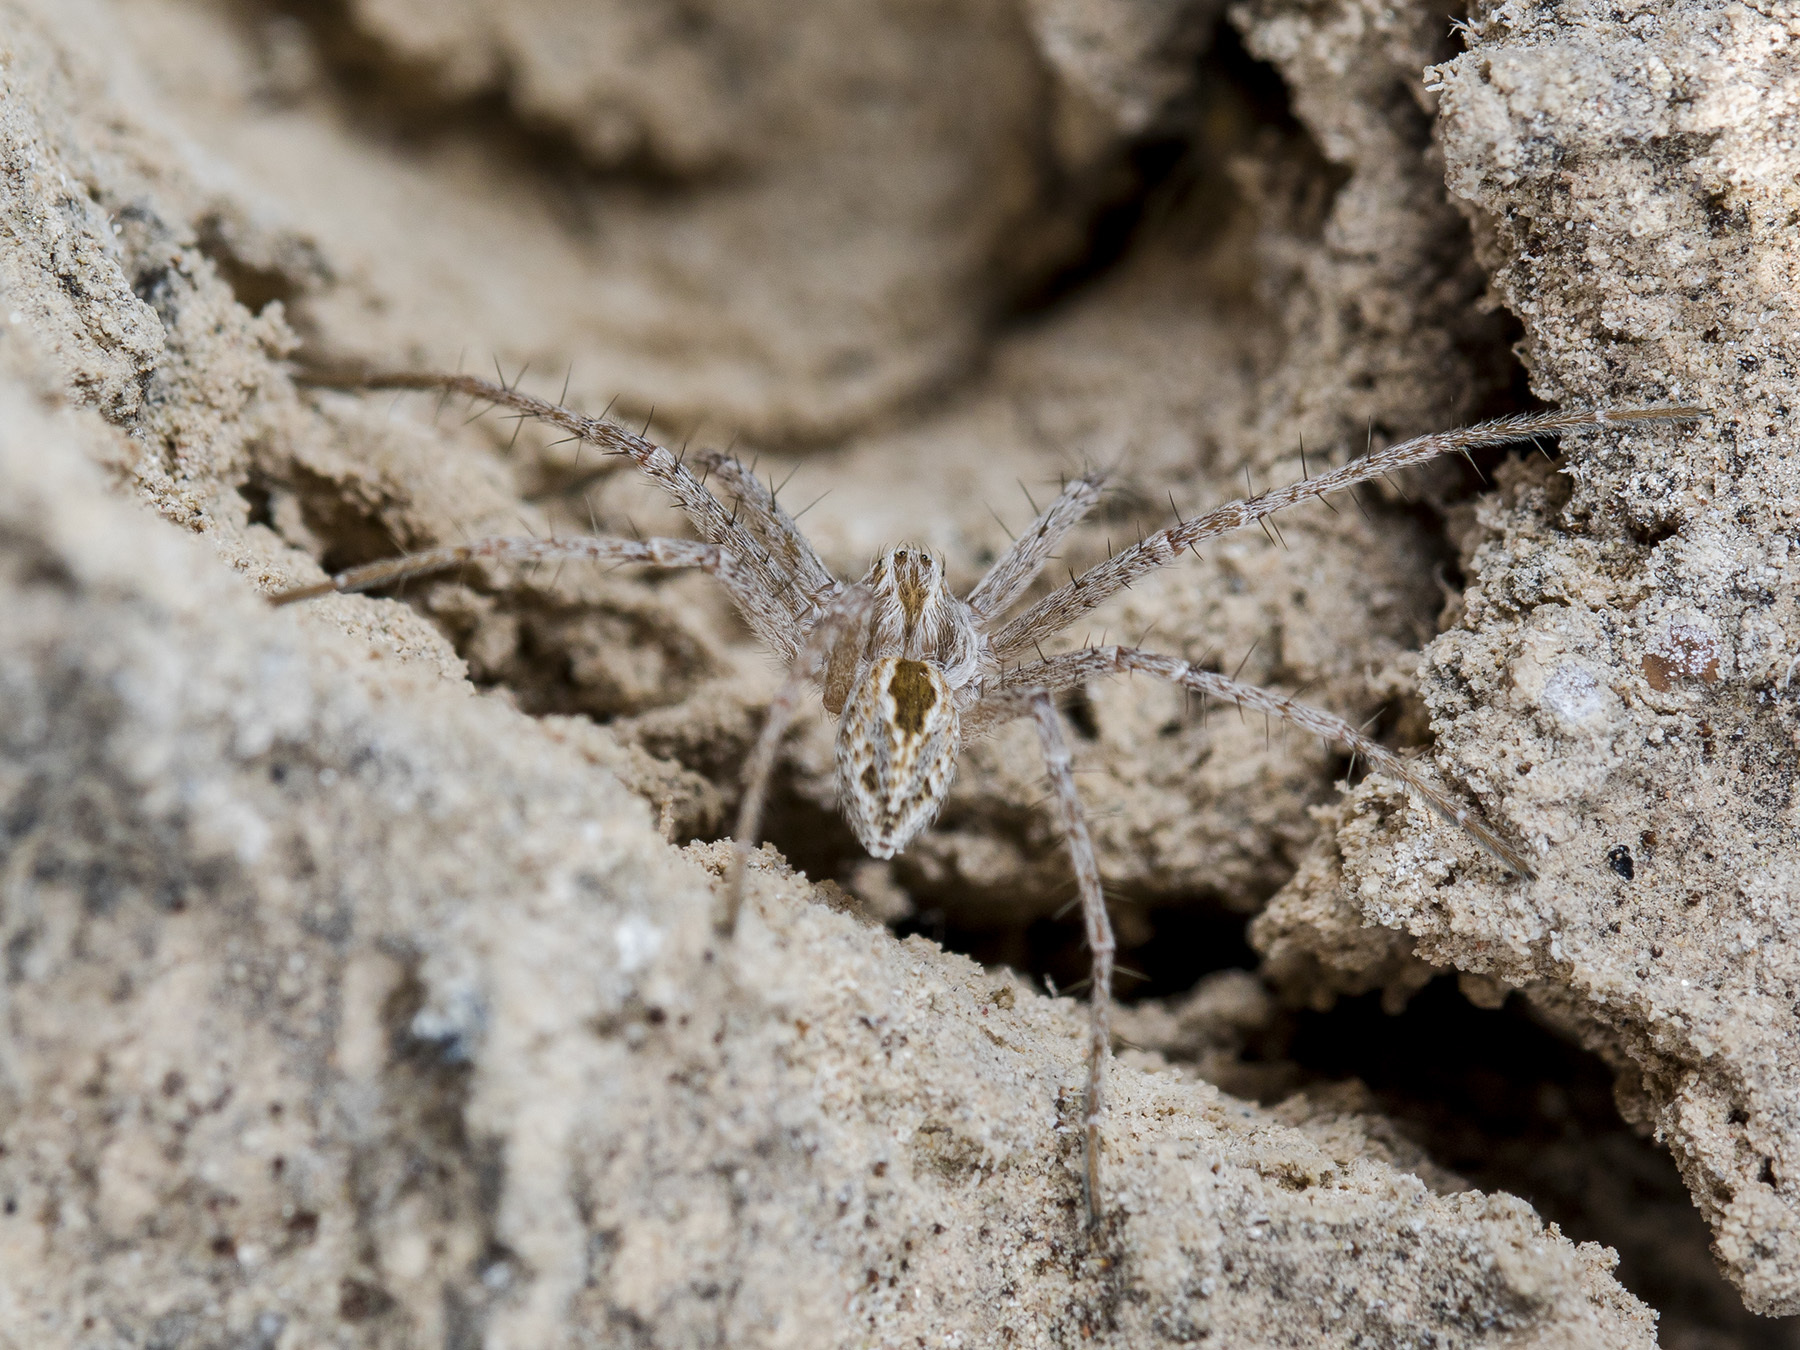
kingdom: Animalia
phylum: Arthropoda
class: Arachnida
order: Araneae
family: Philodromidae
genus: Thanatus
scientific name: Thanatus fabricii
